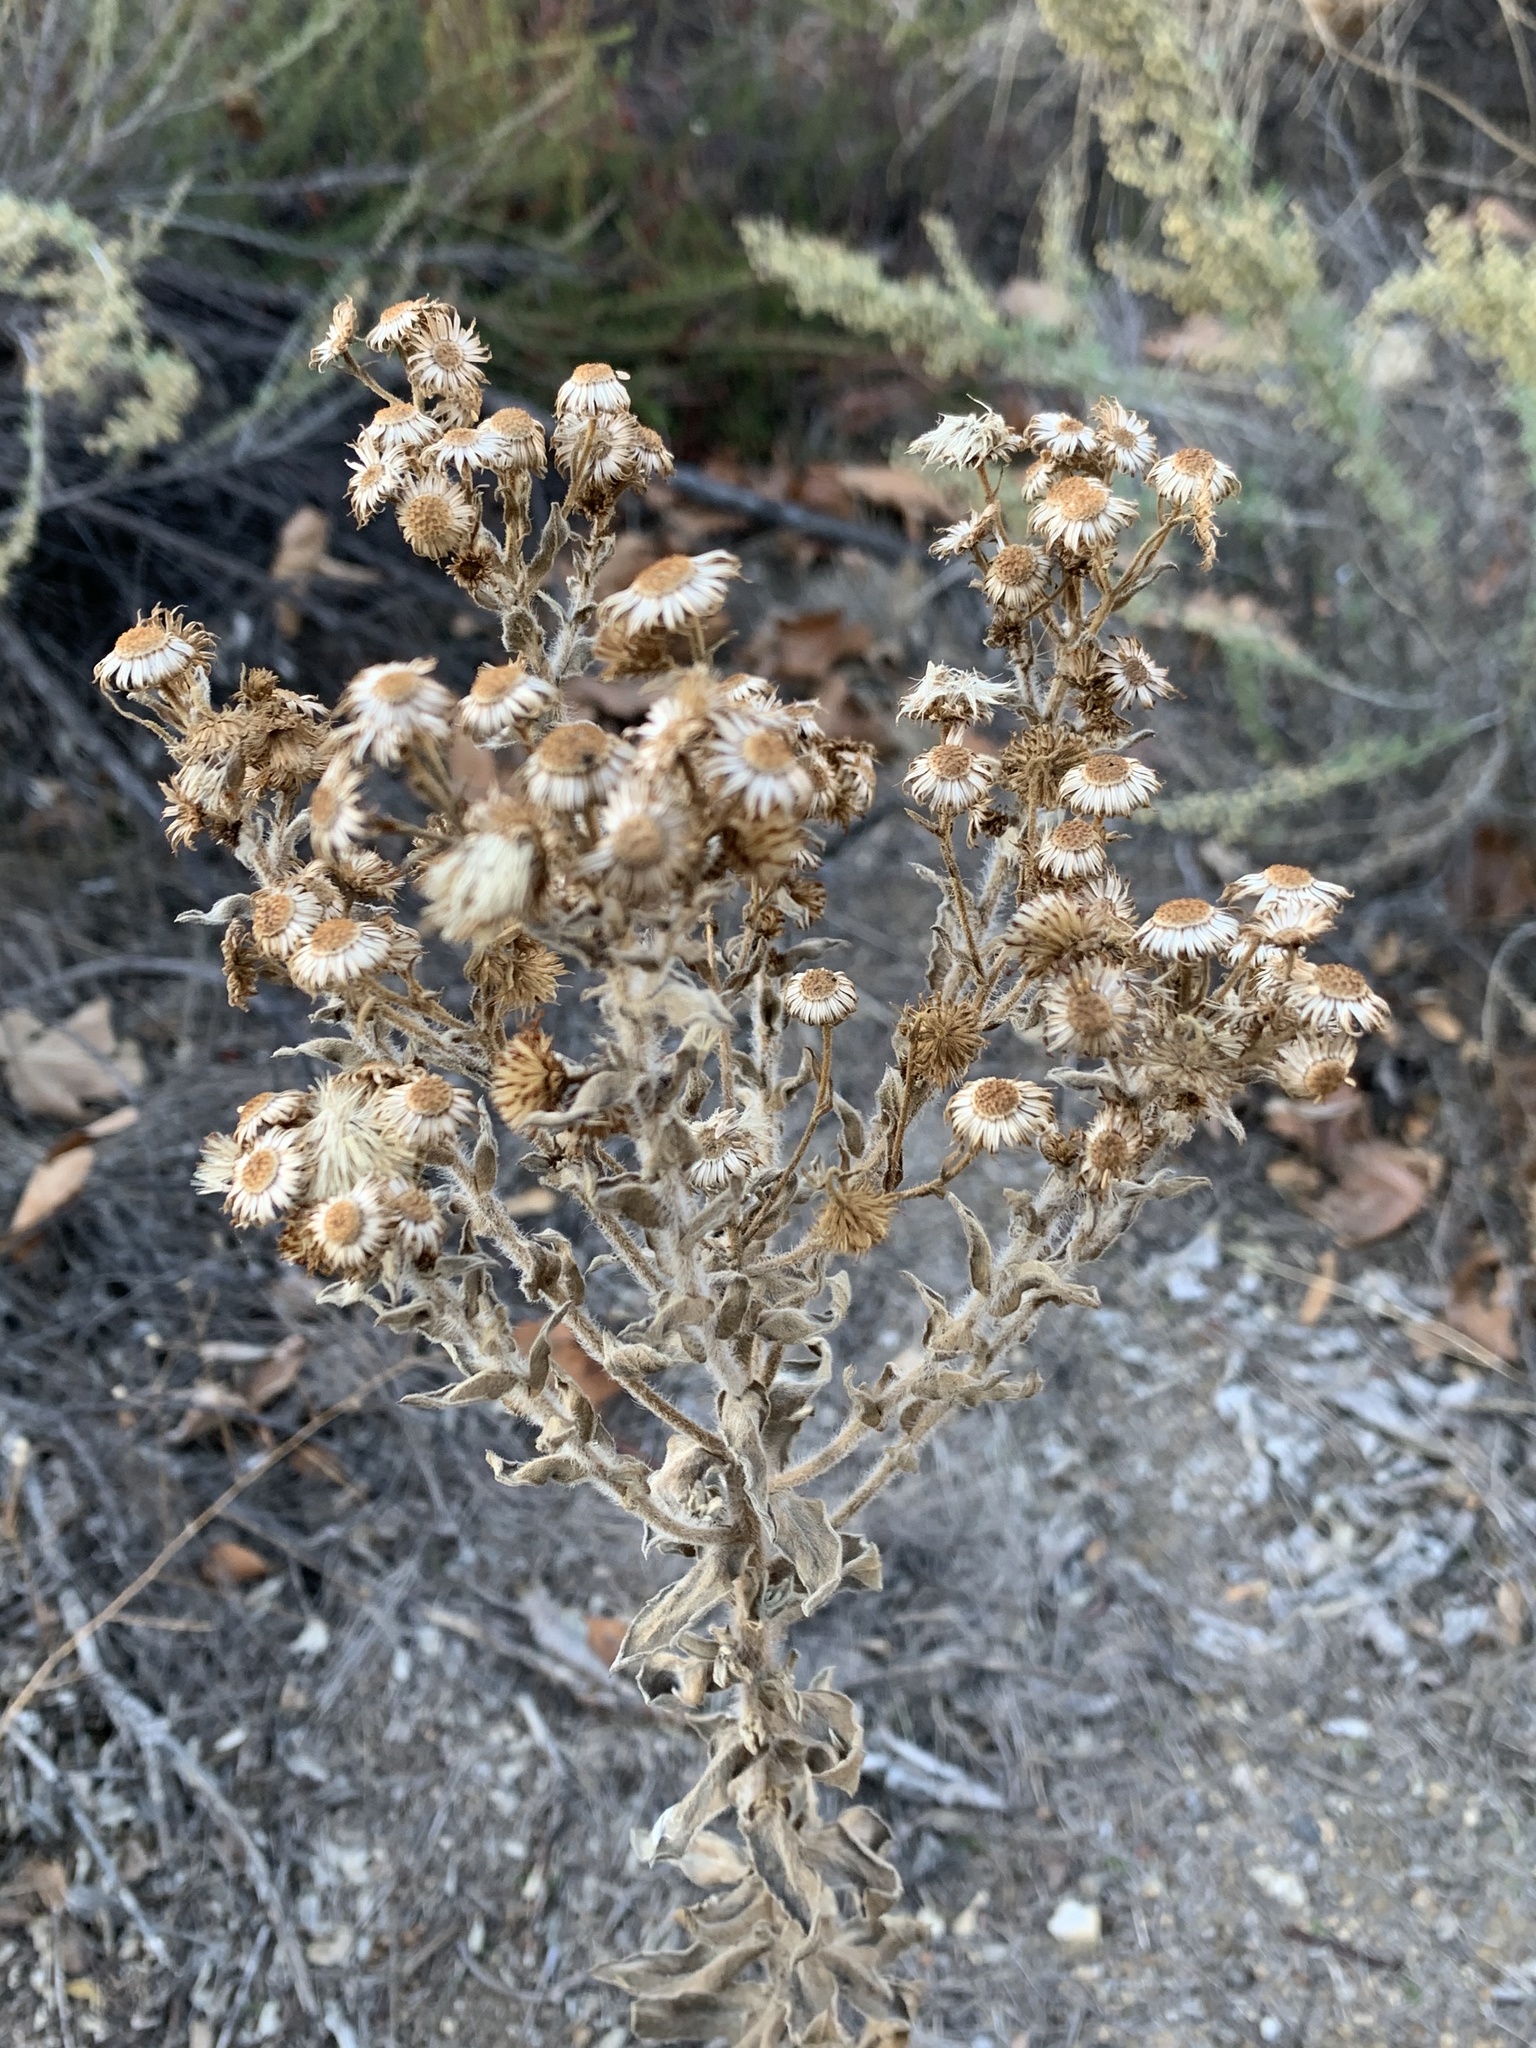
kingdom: Plantae
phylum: Tracheophyta
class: Magnoliopsida
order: Asterales
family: Asteraceae
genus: Heterotheca
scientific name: Heterotheca grandiflora
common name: Telegraphweed
